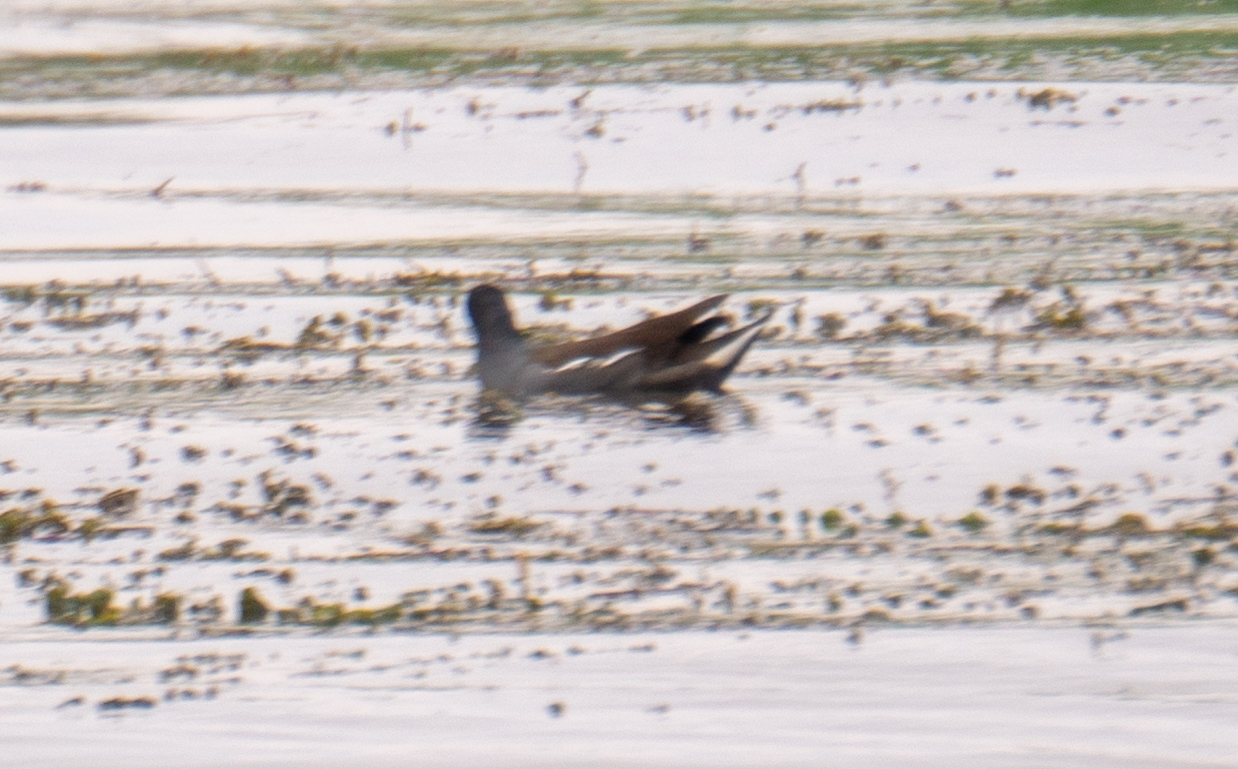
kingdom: Animalia
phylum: Chordata
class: Aves
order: Gruiformes
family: Rallidae
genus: Gallinula
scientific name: Gallinula chloropus
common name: Common moorhen
